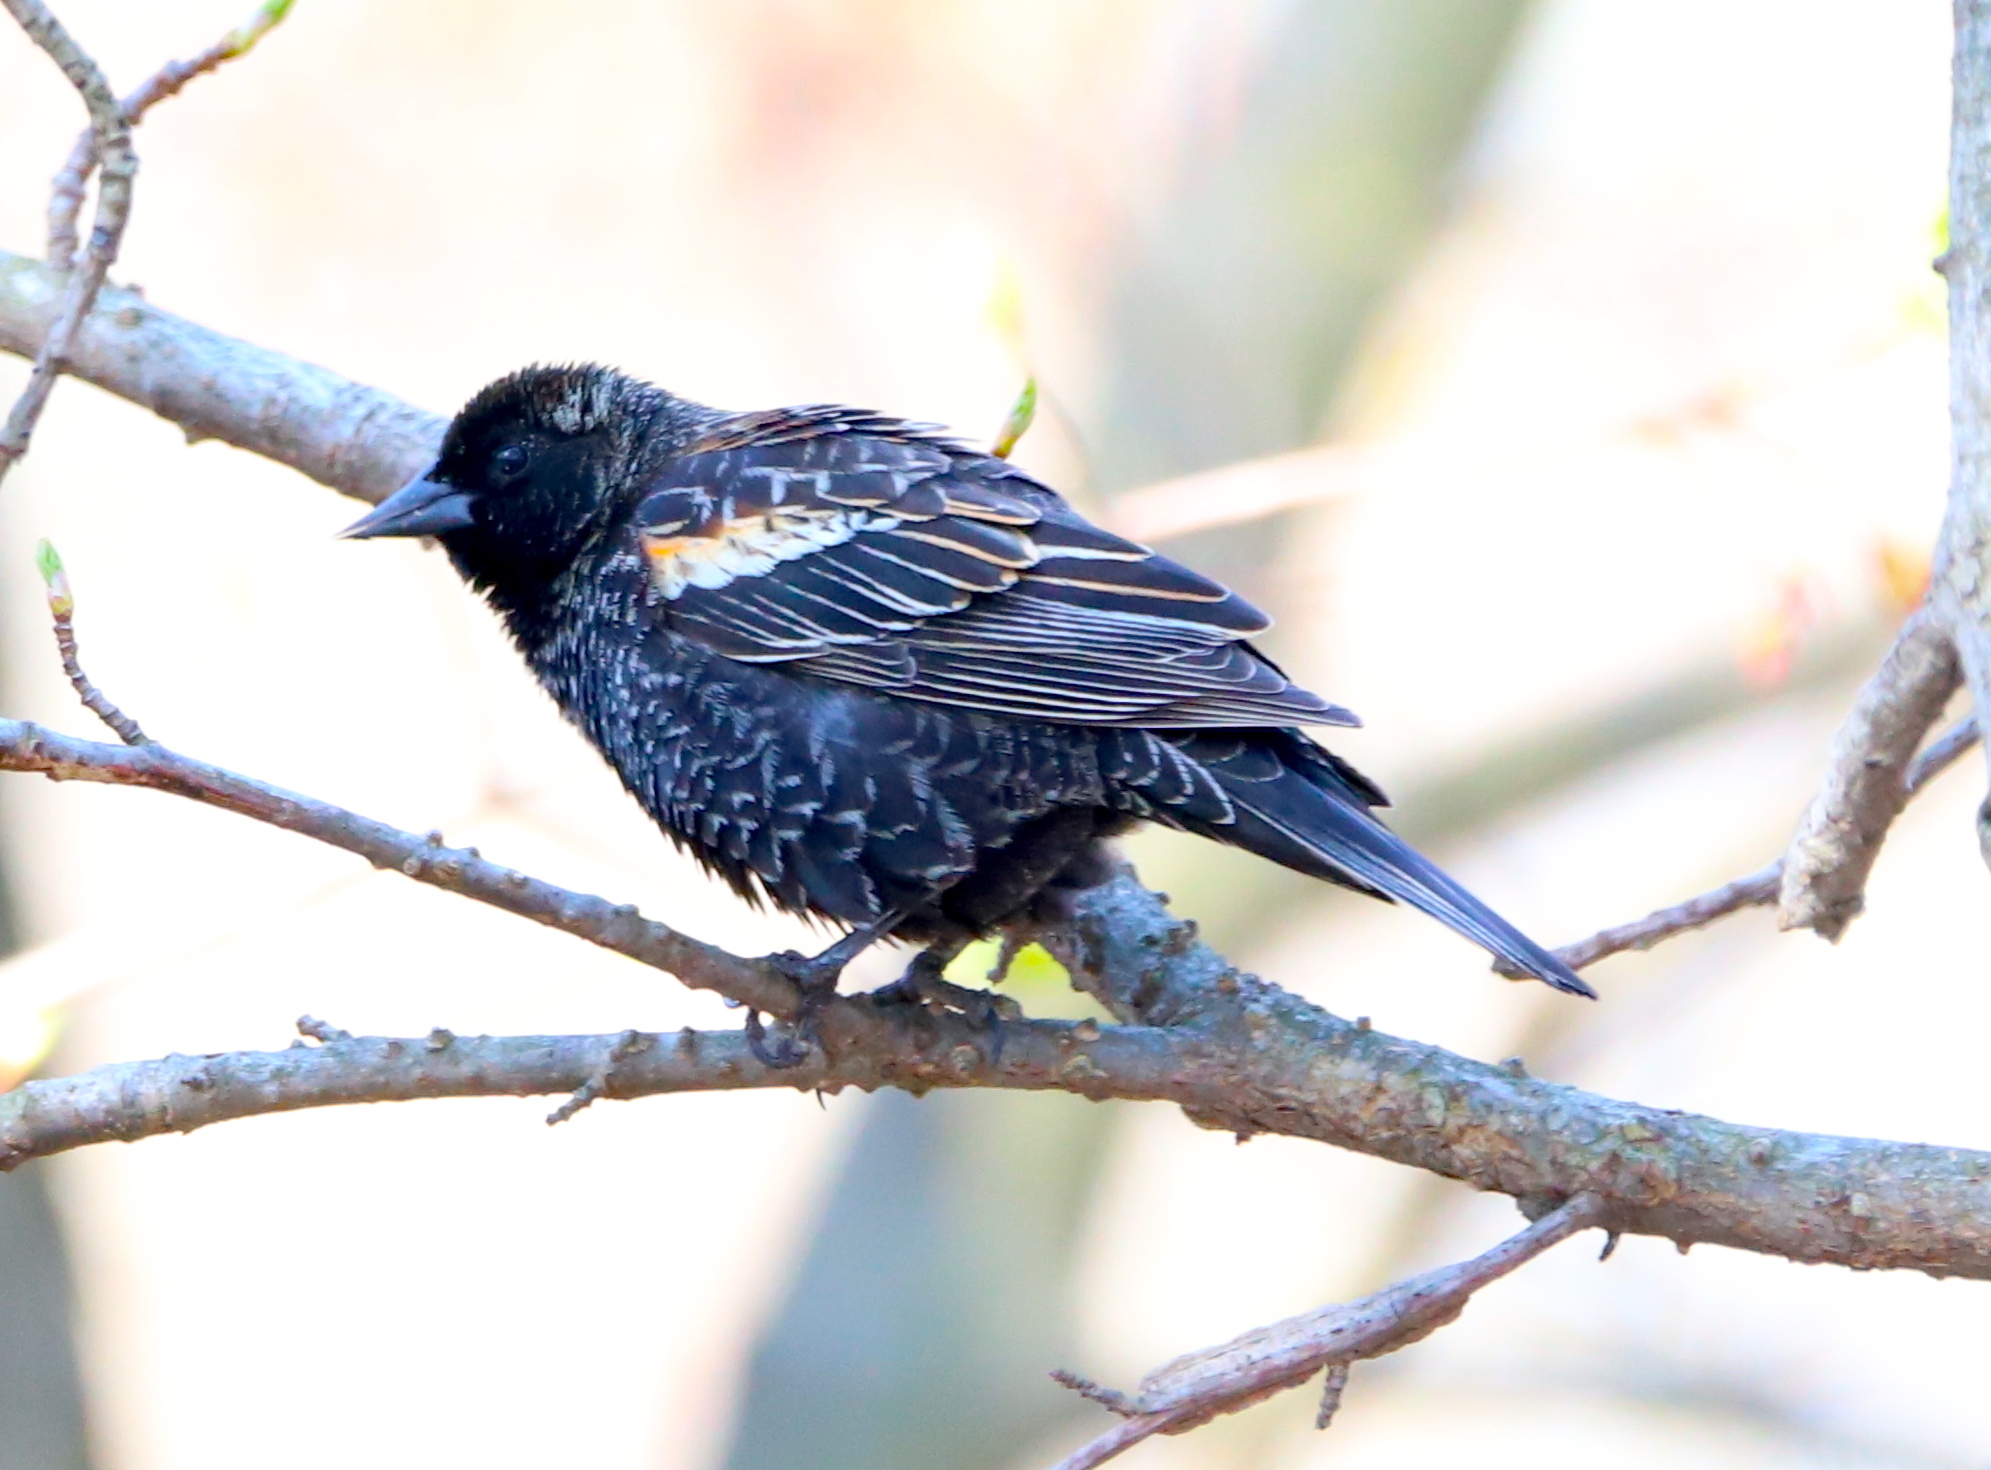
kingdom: Animalia
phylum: Chordata
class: Aves
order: Passeriformes
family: Icteridae
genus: Agelaius
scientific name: Agelaius phoeniceus
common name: Red-winged blackbird
